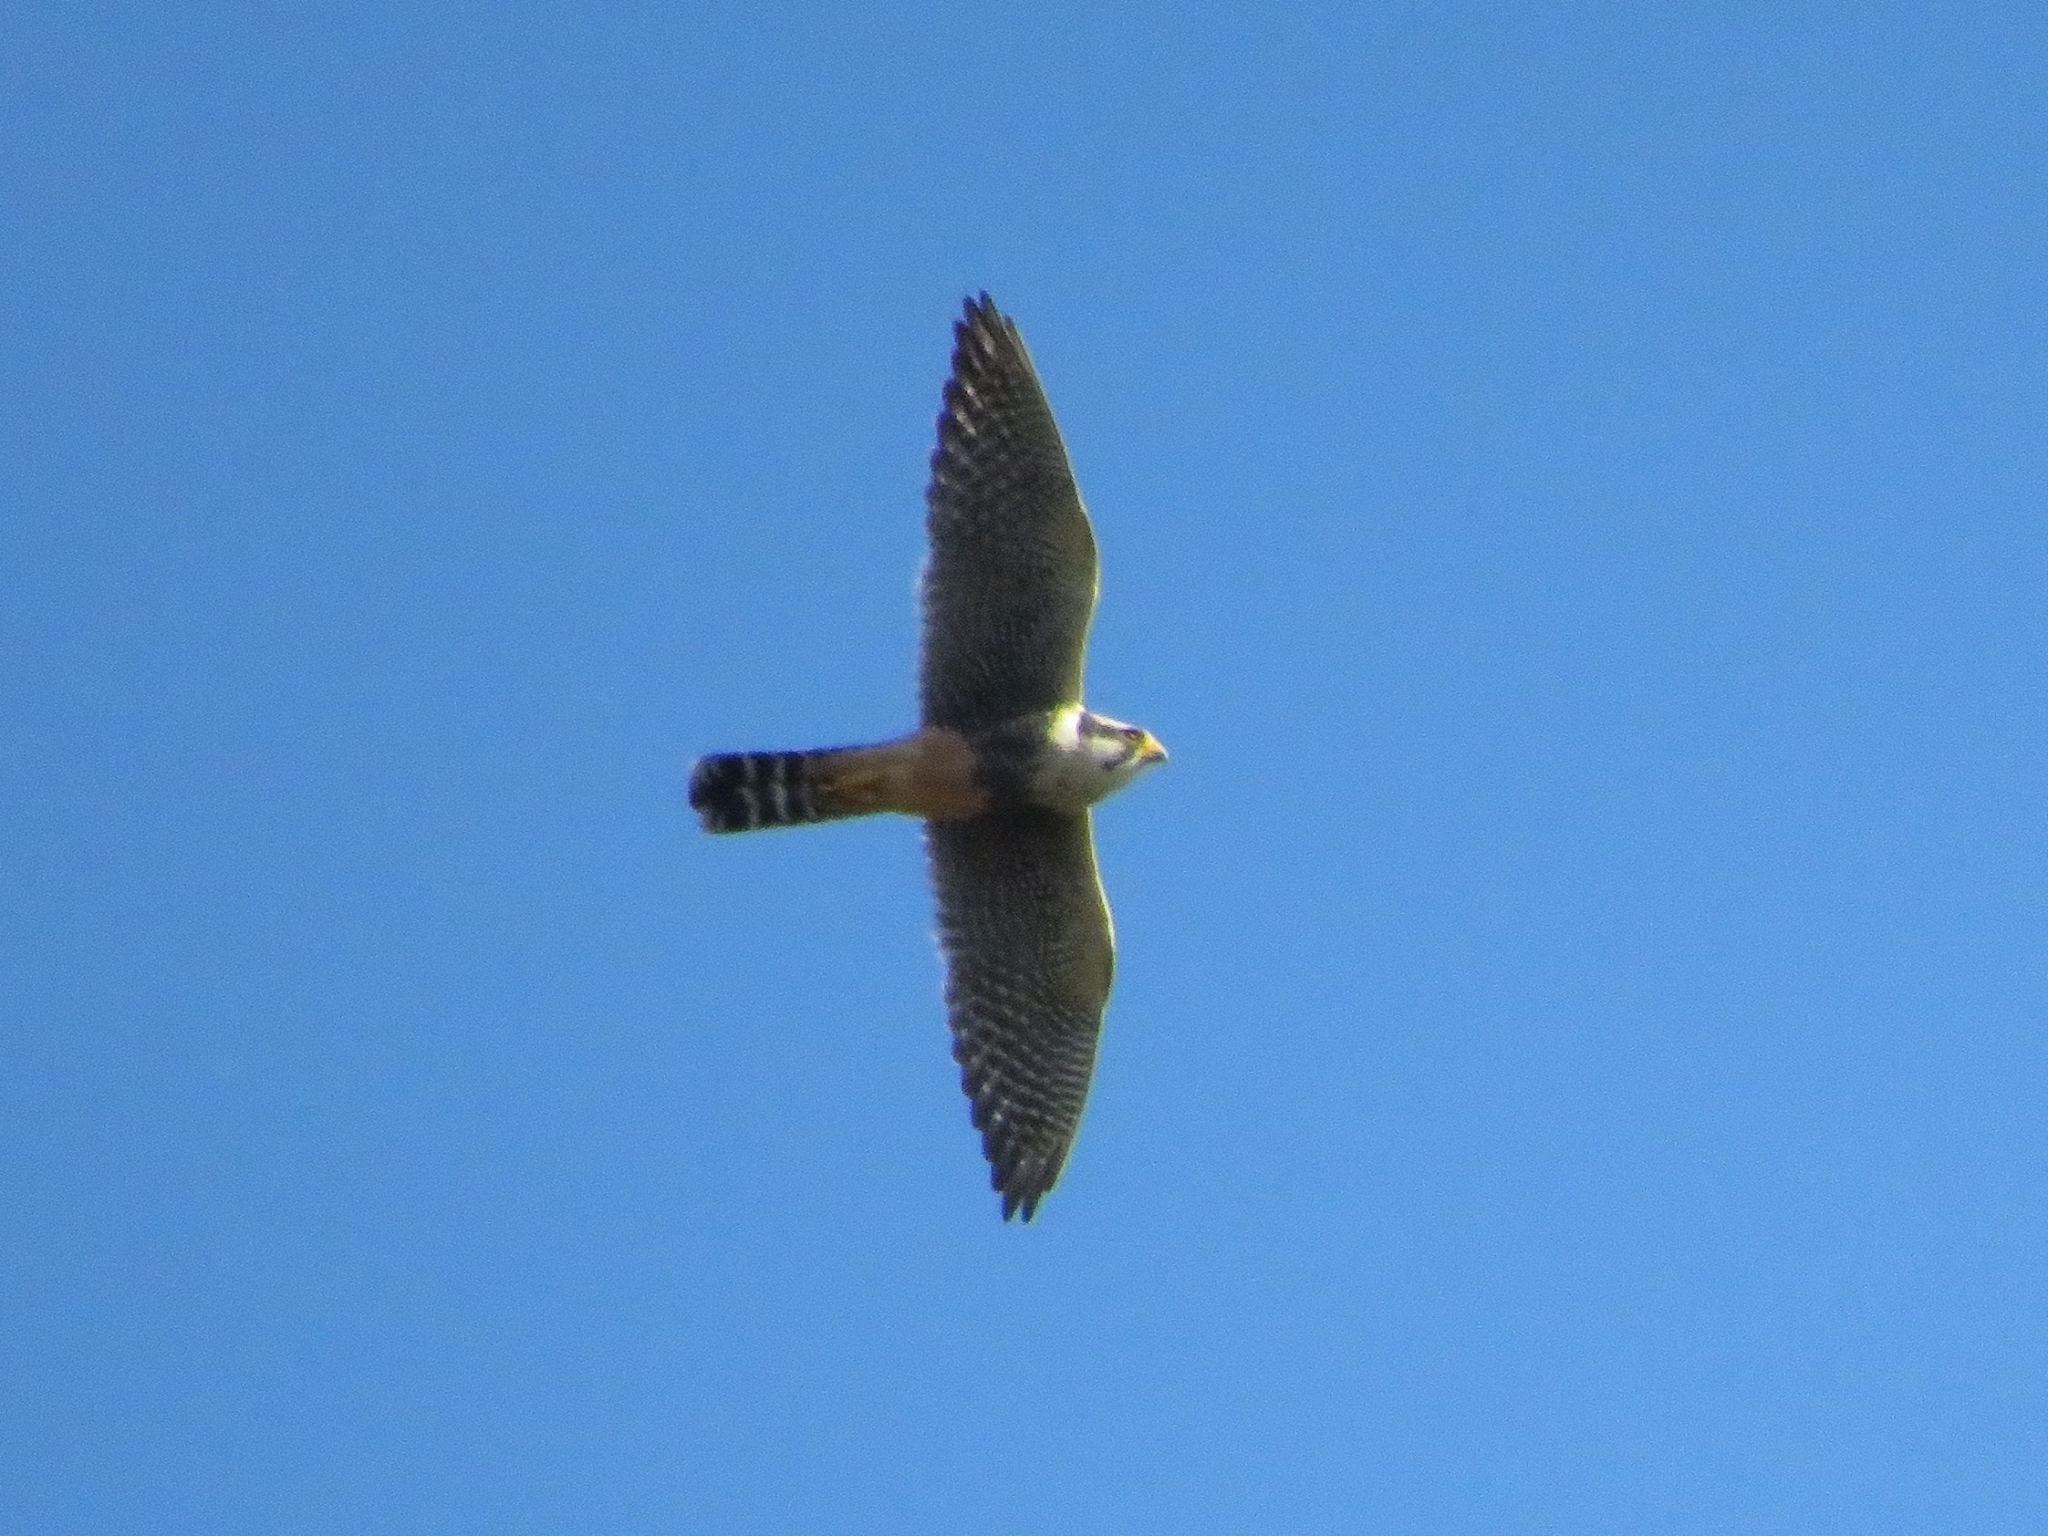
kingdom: Animalia
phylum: Chordata
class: Aves
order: Falconiformes
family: Falconidae
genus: Falco
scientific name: Falco femoralis
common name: Aplomado falcon
